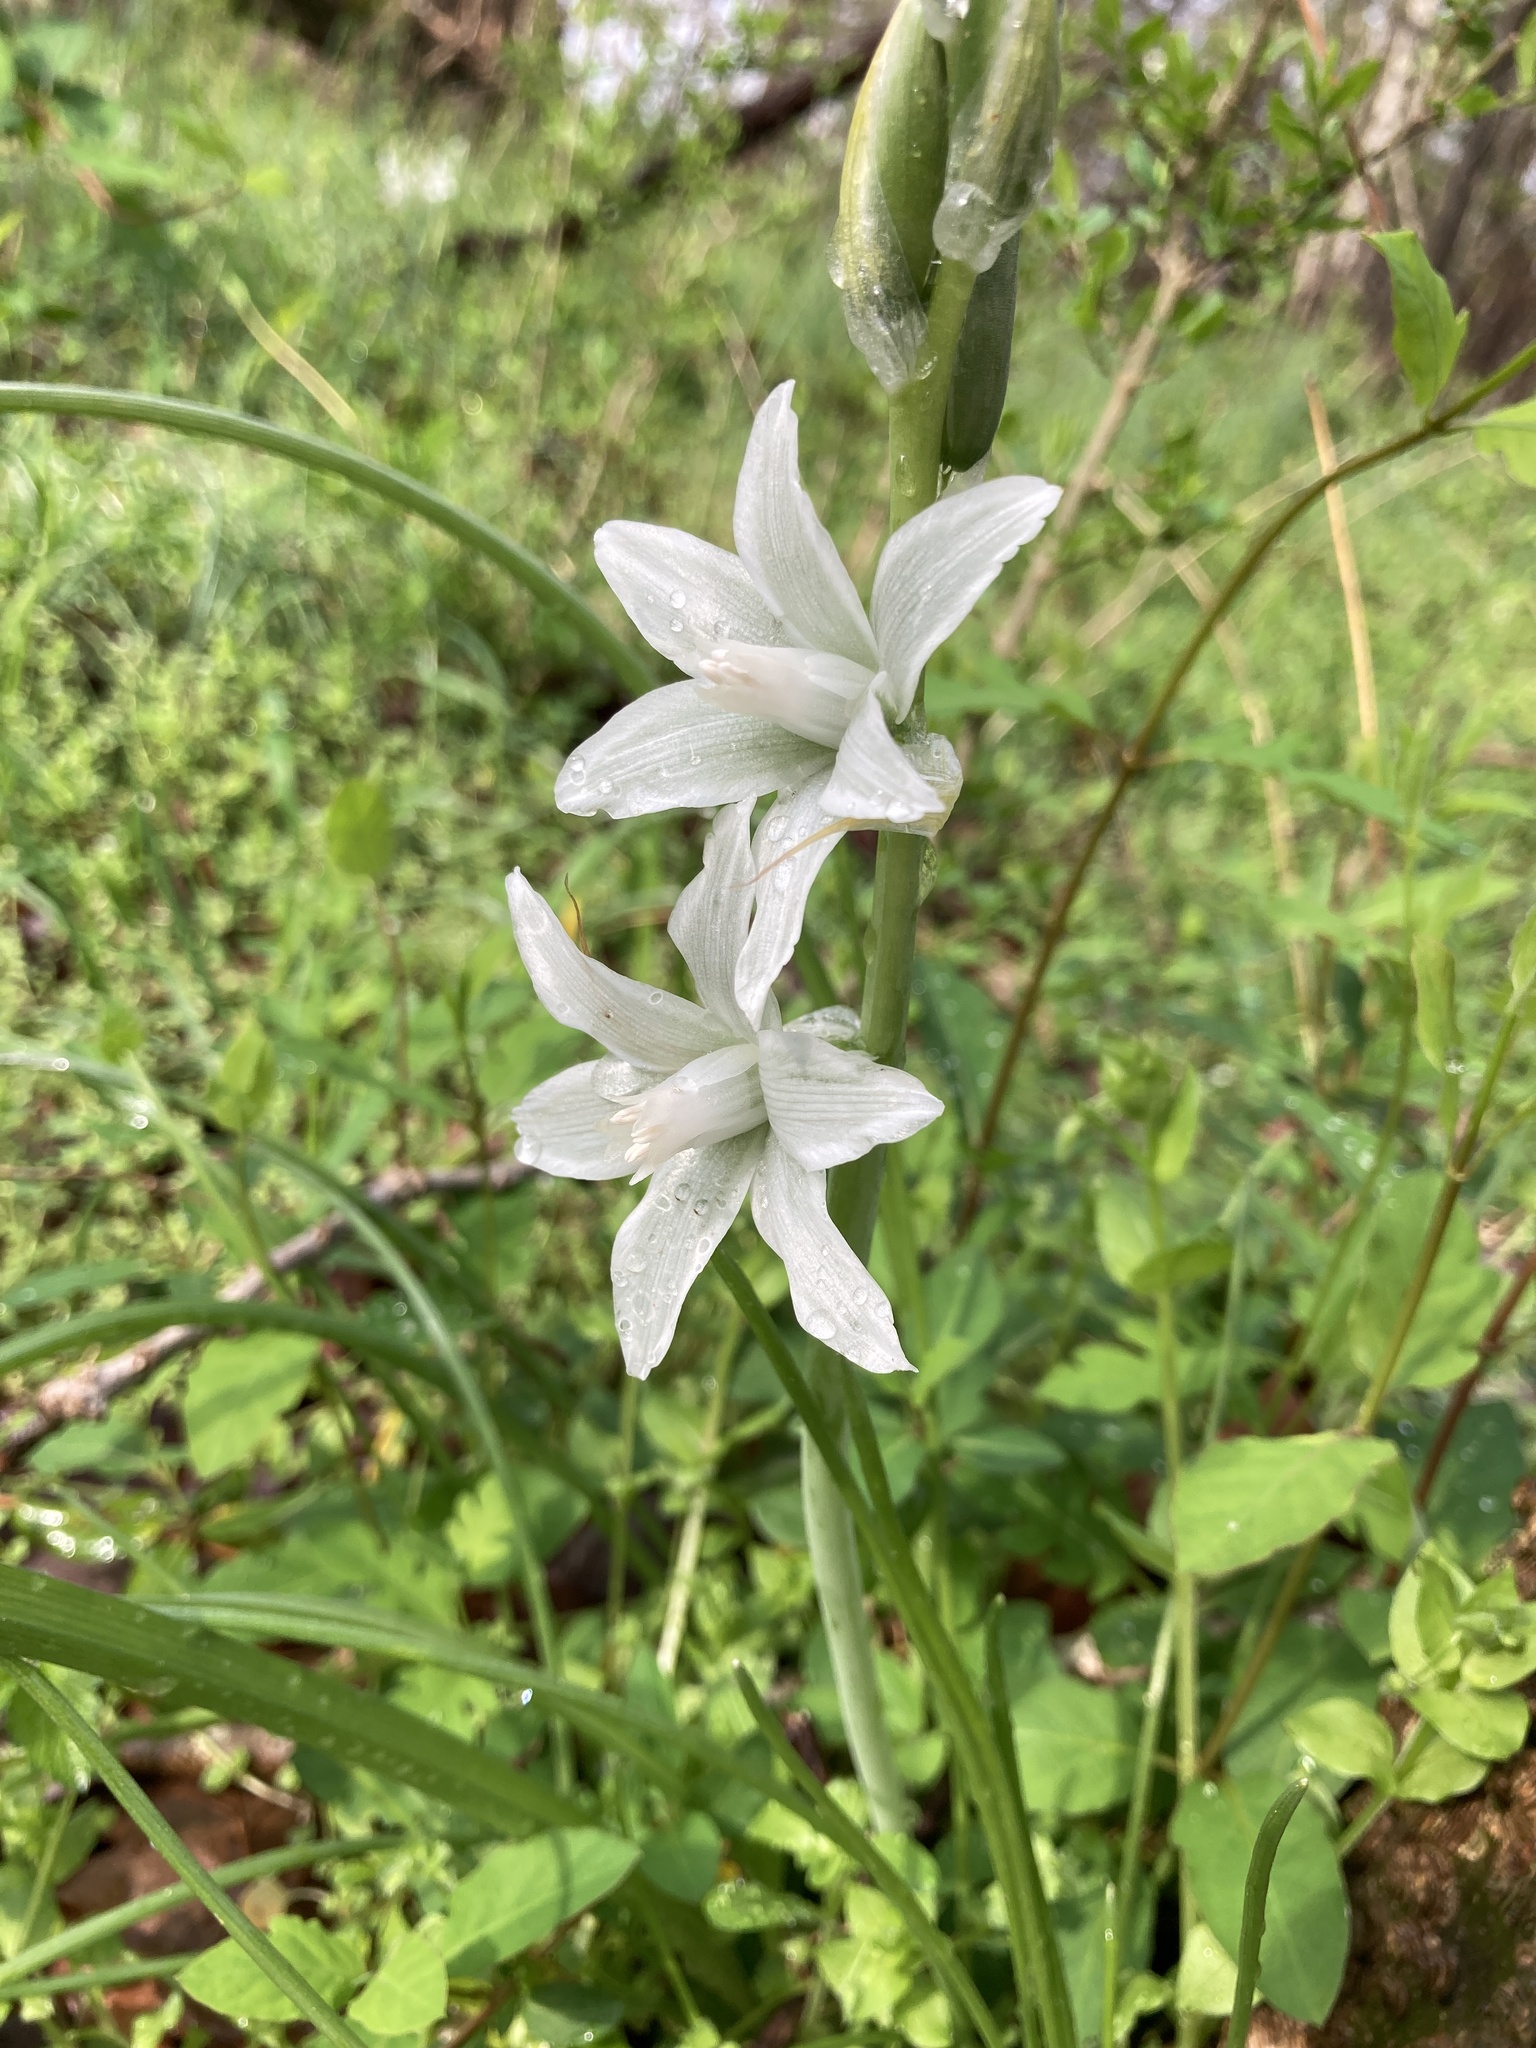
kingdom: Plantae
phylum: Tracheophyta
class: Liliopsida
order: Asparagales
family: Asparagaceae
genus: Ornithogalum
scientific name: Ornithogalum nutans
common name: Drooping star-of-bethlehem
